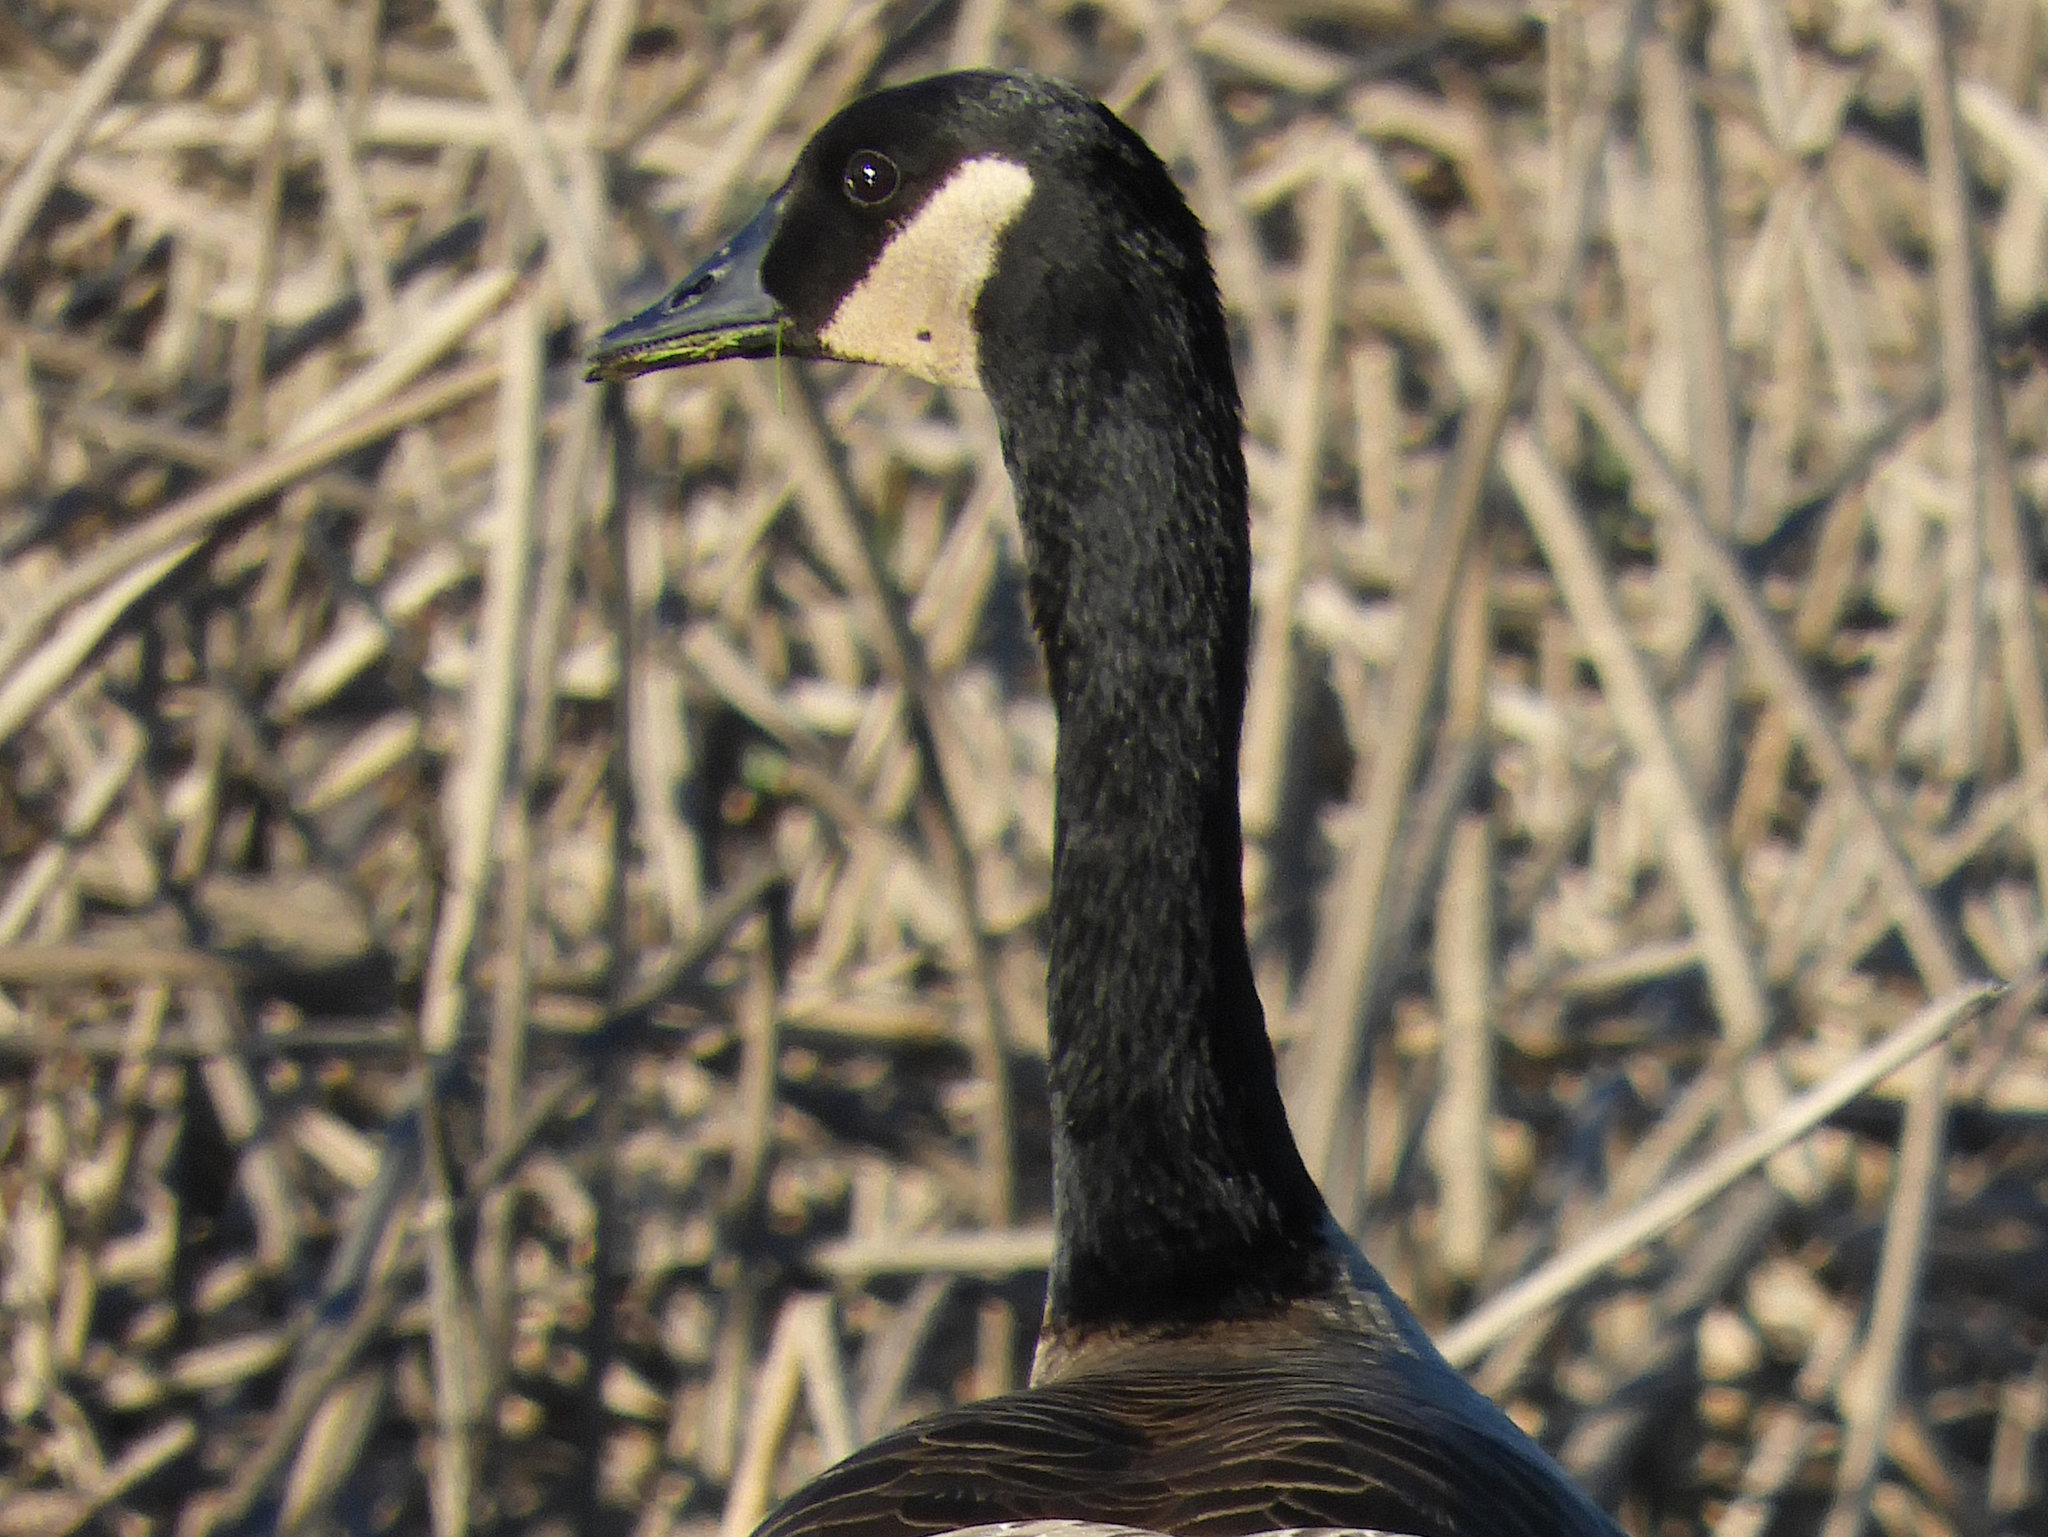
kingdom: Animalia
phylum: Chordata
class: Aves
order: Anseriformes
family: Anatidae
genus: Branta
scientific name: Branta canadensis
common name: Canada goose
